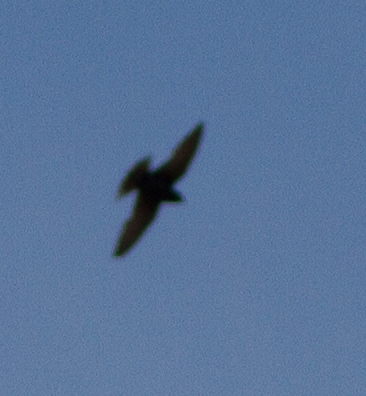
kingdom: Animalia
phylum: Chordata
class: Aves
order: Passeriformes
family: Hirundinidae
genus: Progne
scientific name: Progne subis
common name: Purple martin
